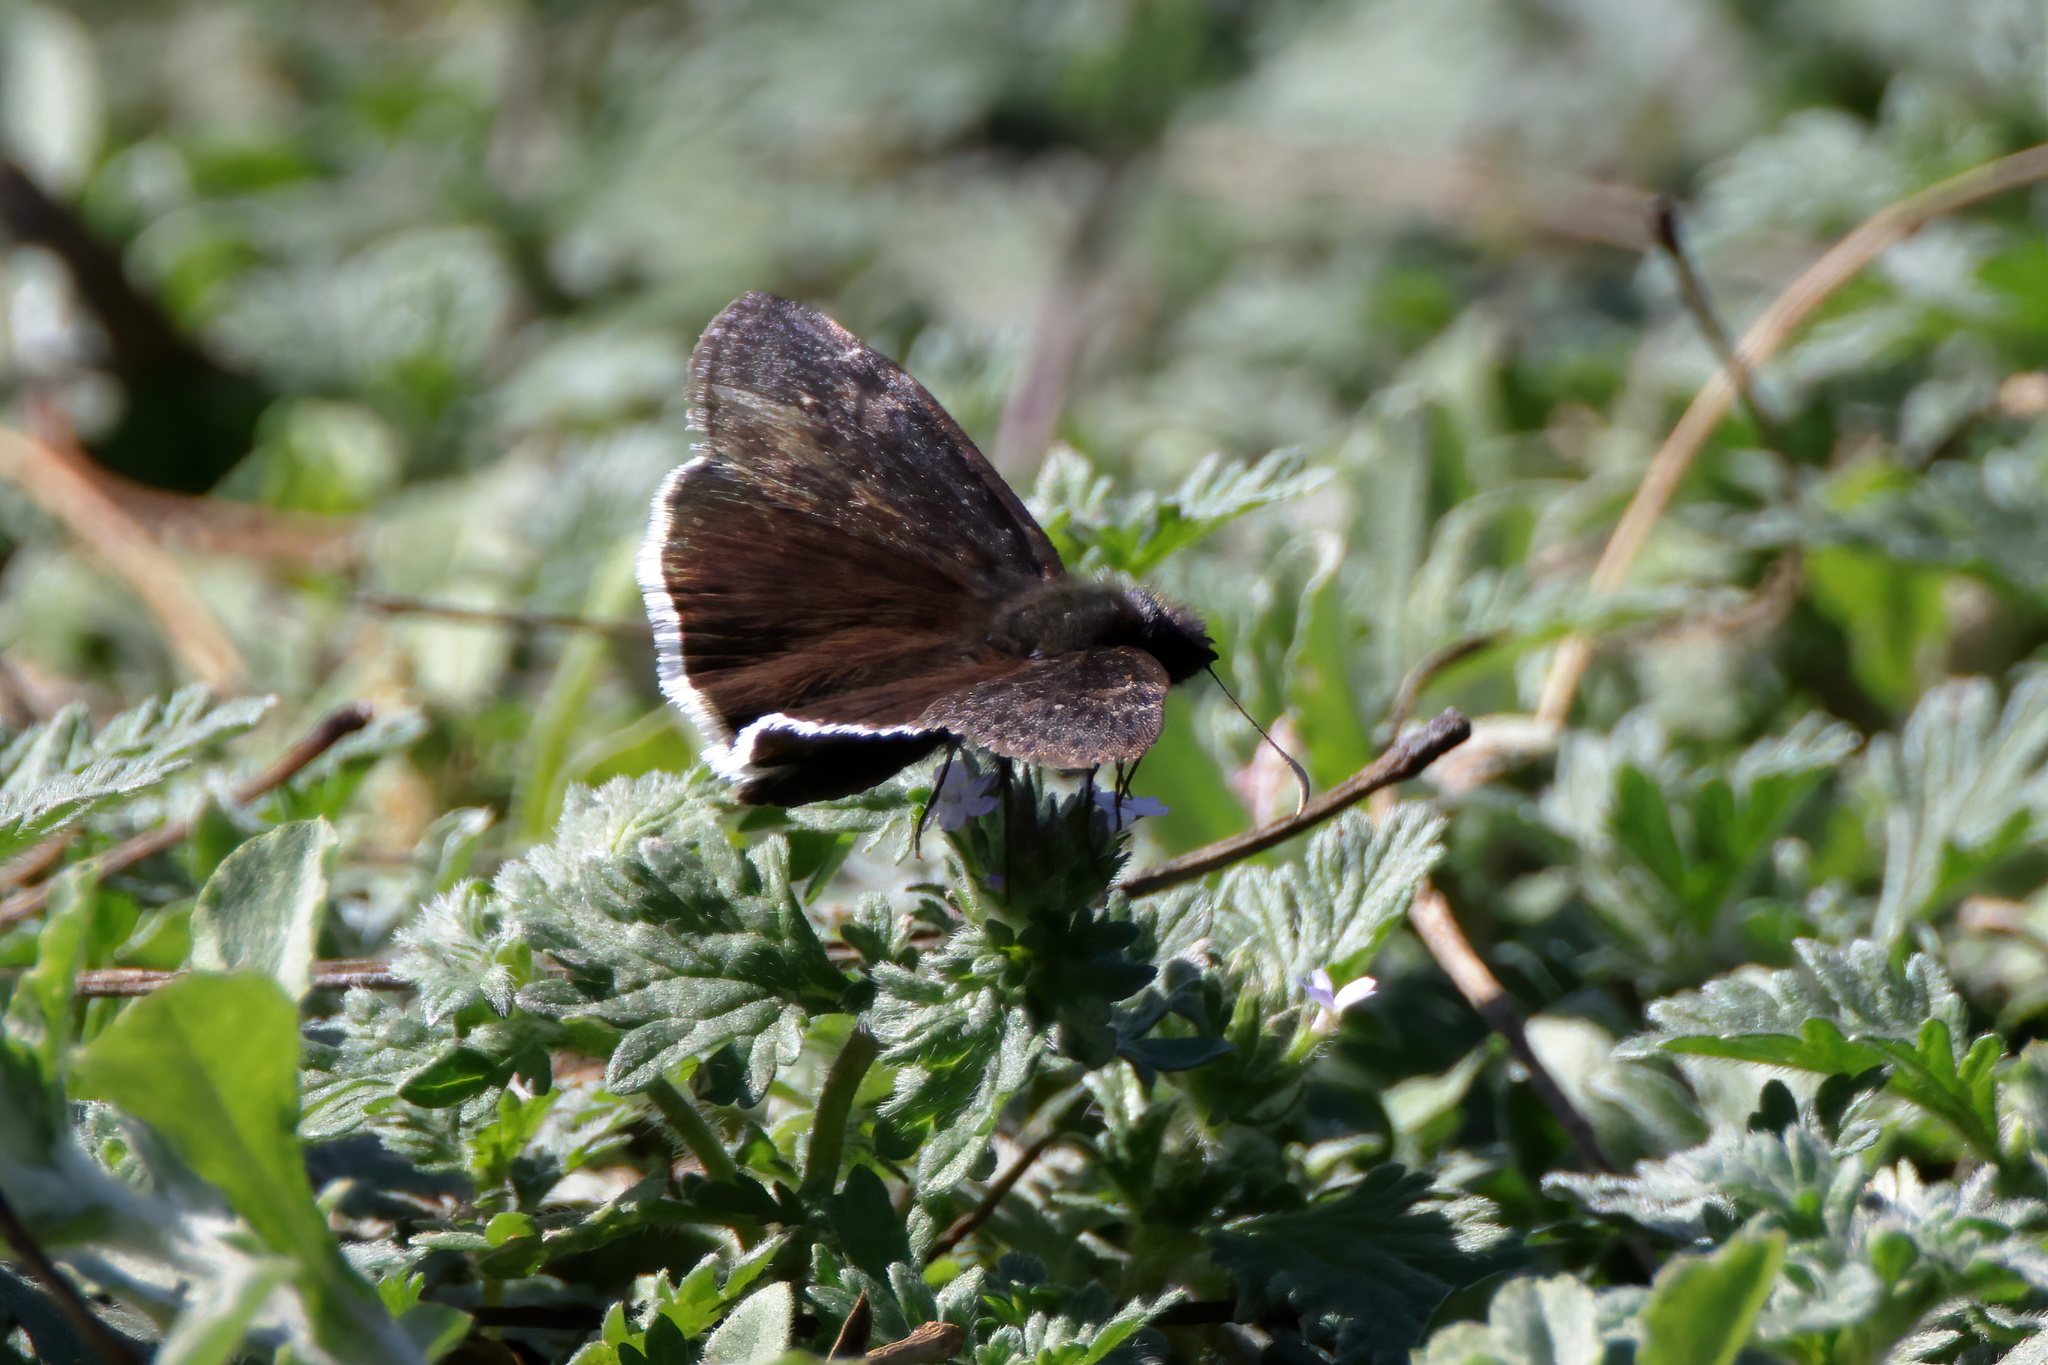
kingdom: Animalia
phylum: Arthropoda
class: Insecta
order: Lepidoptera
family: Hesperiidae
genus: Erynnis
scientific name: Erynnis funeralis
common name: Funereal duskywing
